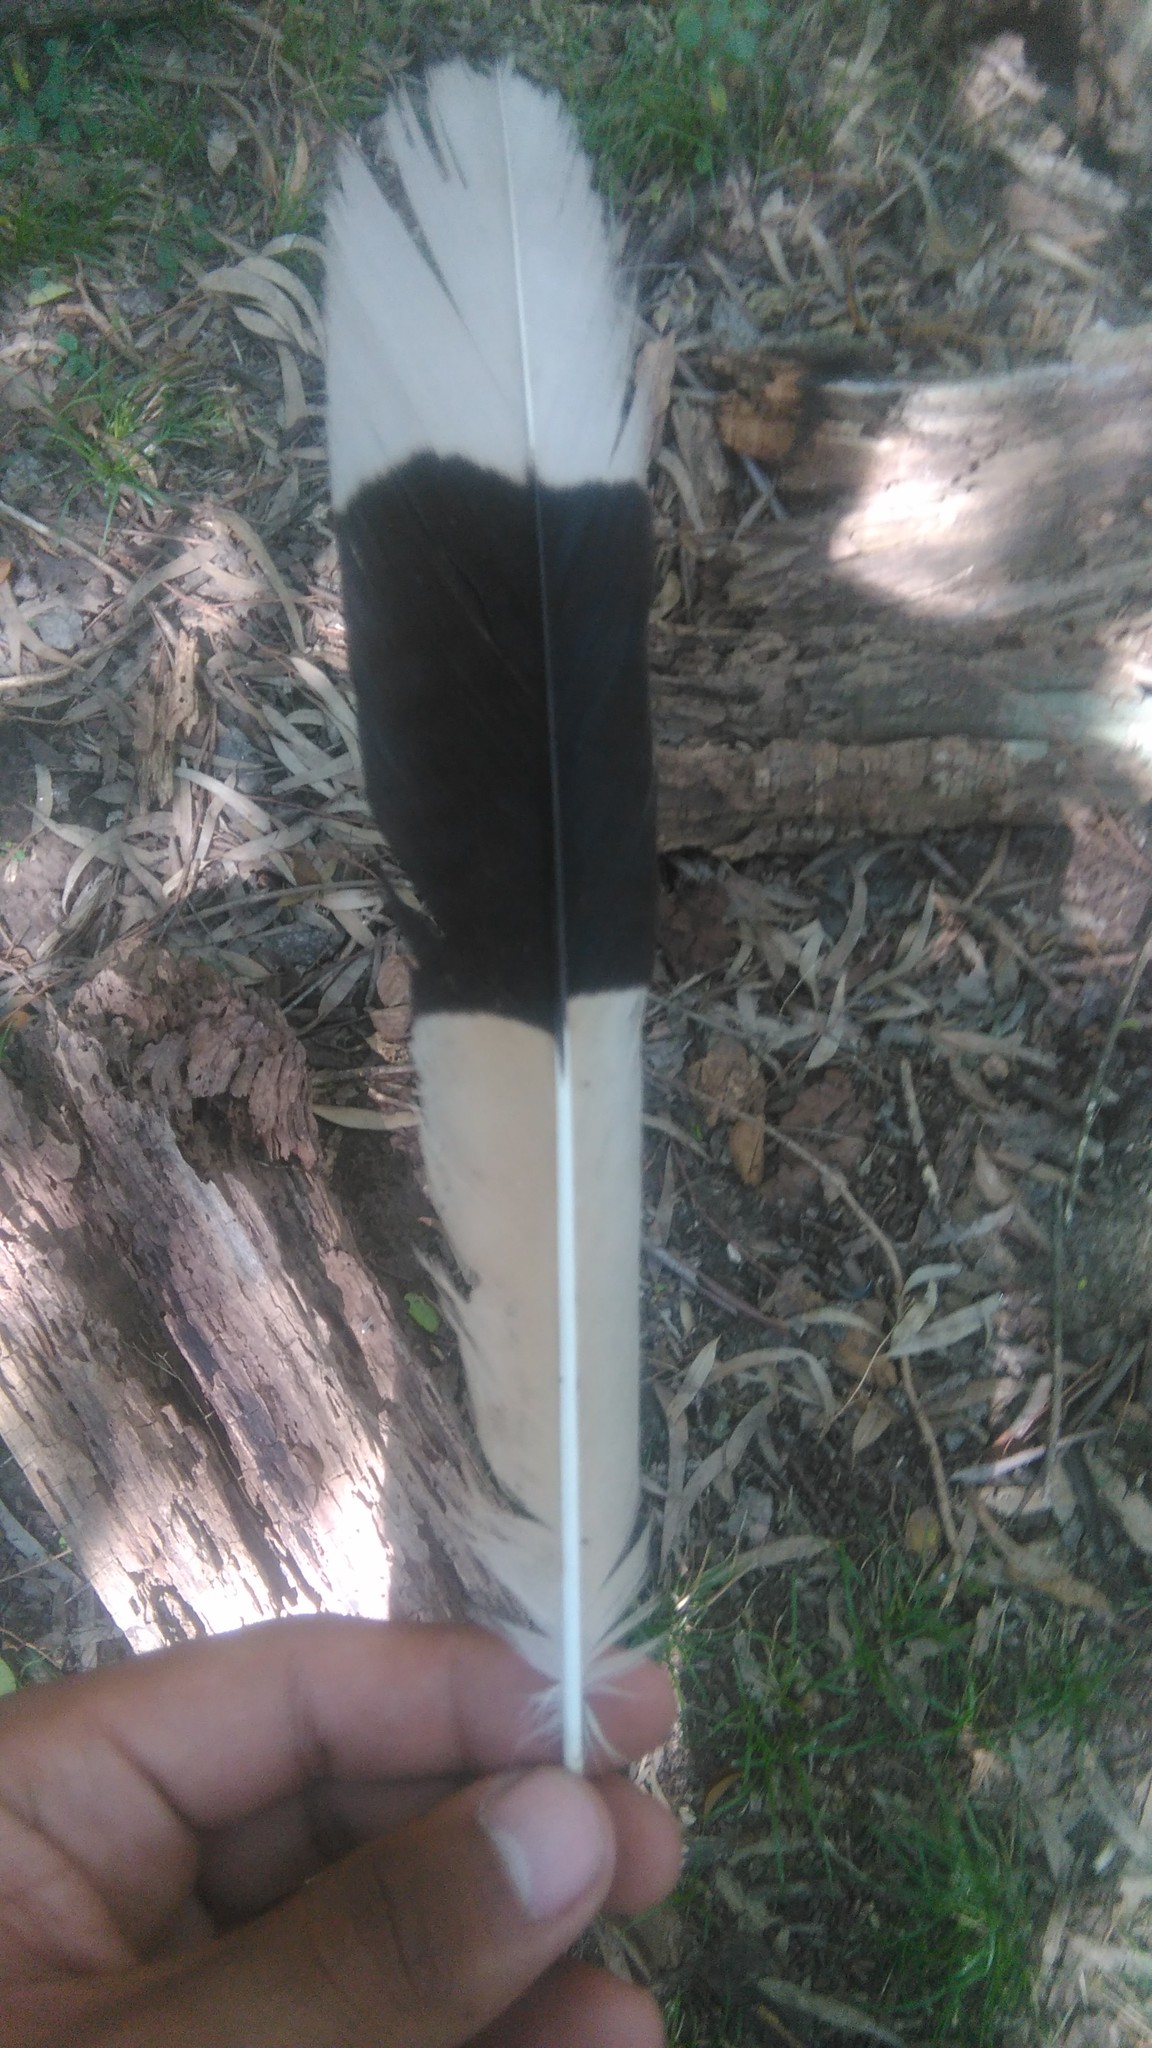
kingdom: Animalia
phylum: Chordata
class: Aves
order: Cuculiformes
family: Cuculidae
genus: Guira
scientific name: Guira guira
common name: Guira cuckoo
